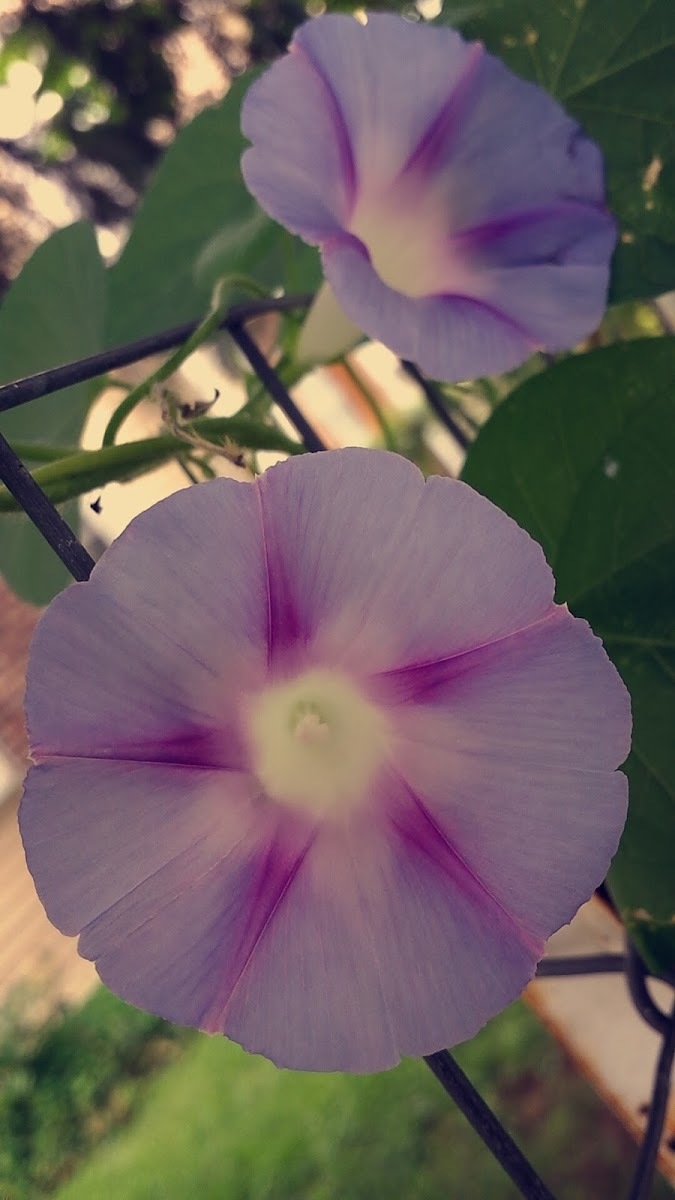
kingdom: Plantae
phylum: Tracheophyta
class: Magnoliopsida
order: Solanales
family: Convolvulaceae
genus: Ipomoea
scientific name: Ipomoea purpurea
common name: Common morning-glory
